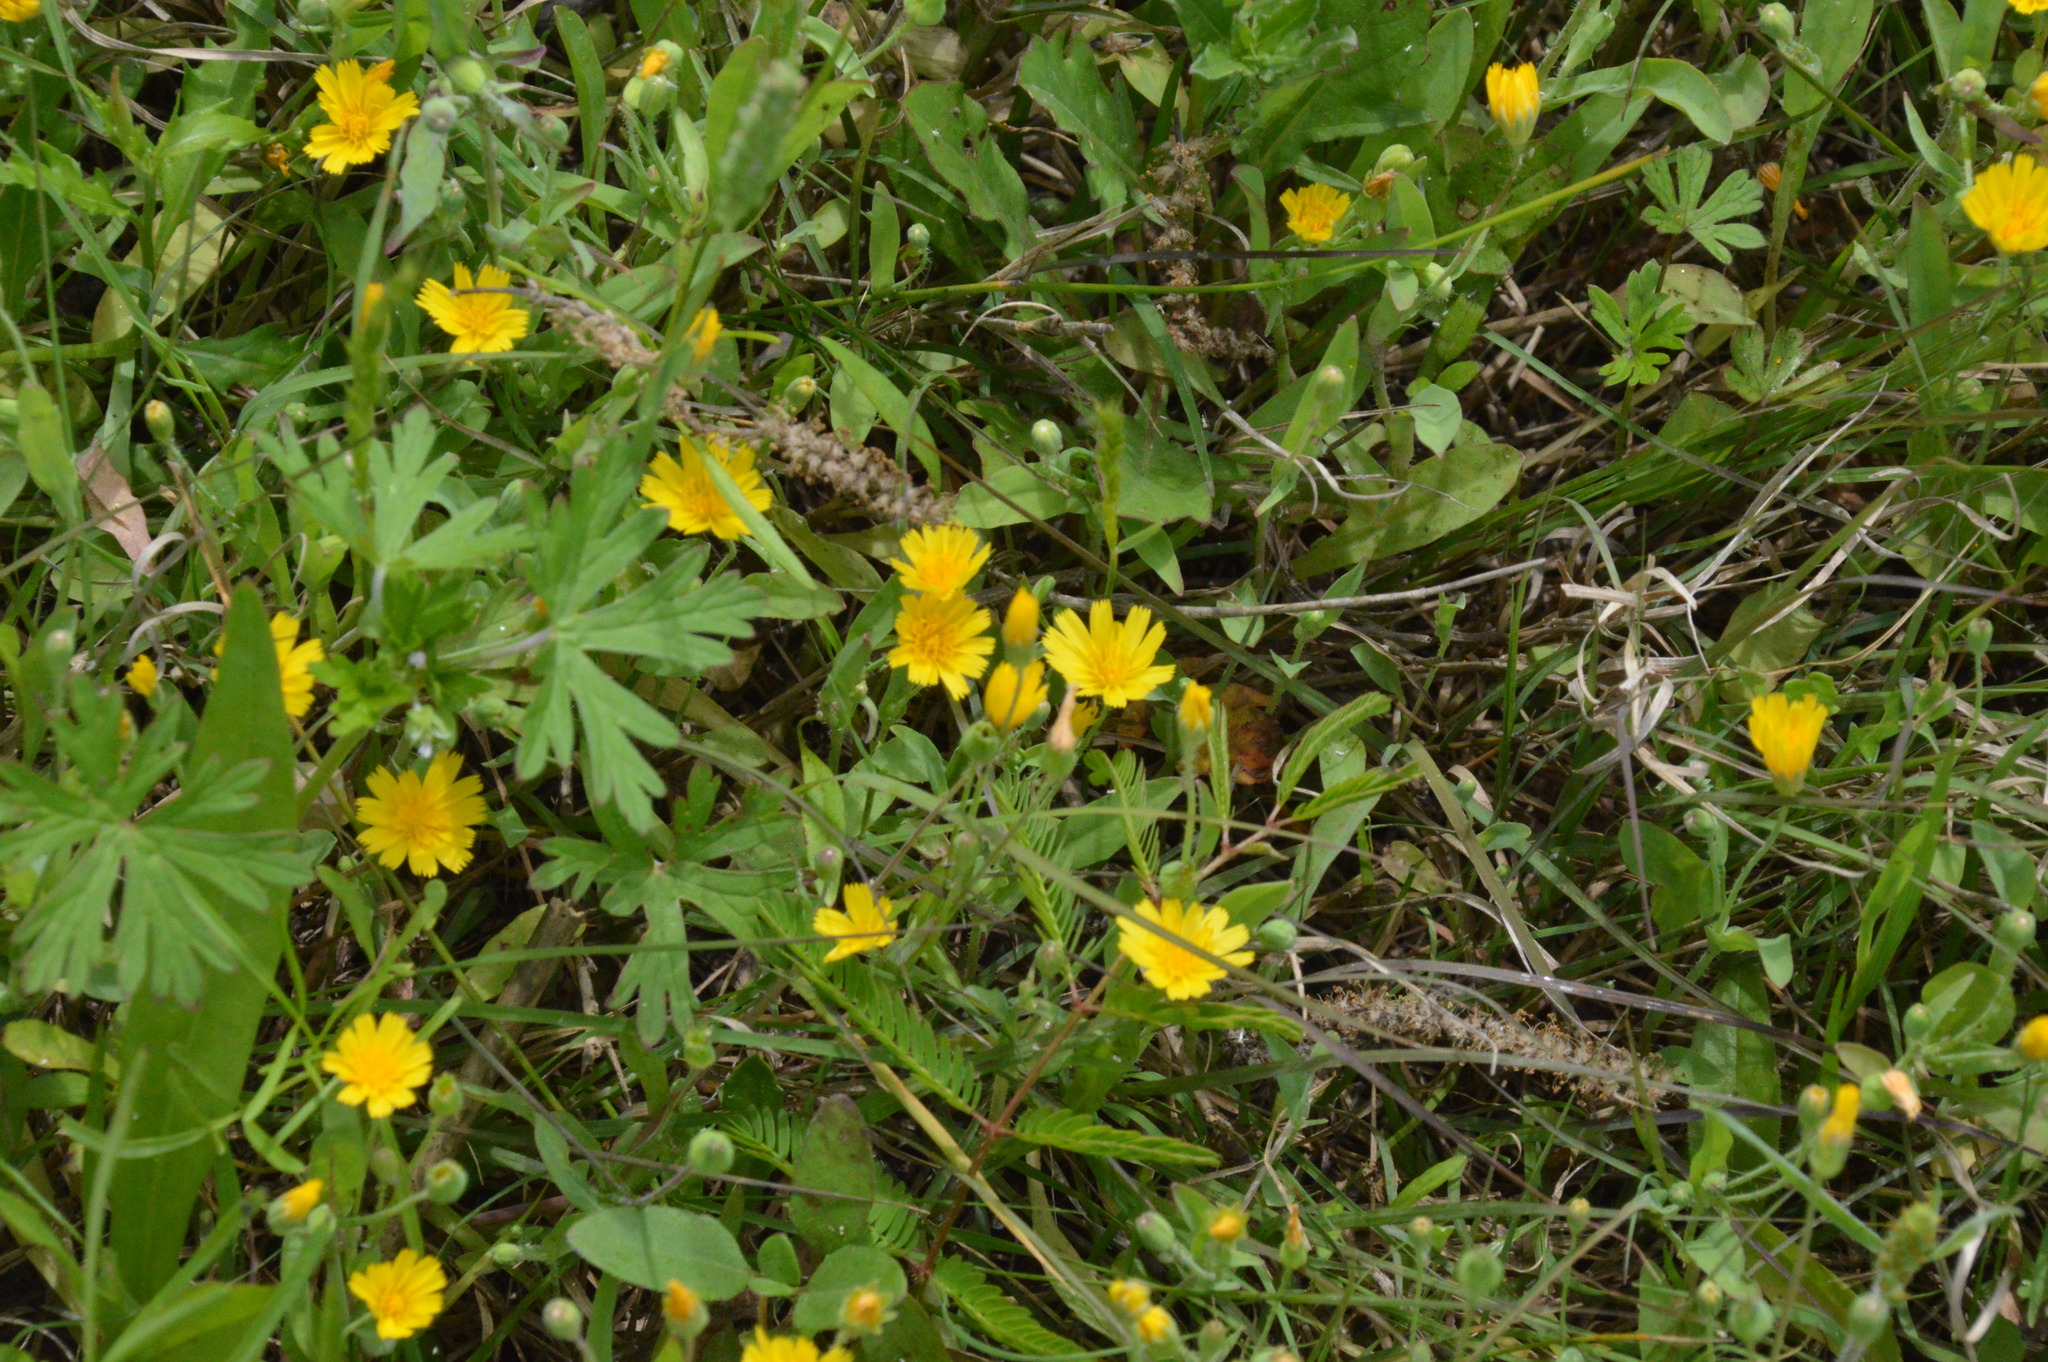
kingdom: Plantae
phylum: Tracheophyta
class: Magnoliopsida
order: Asterales
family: Asteraceae
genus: Krigia
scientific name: Krigia cespitosa
